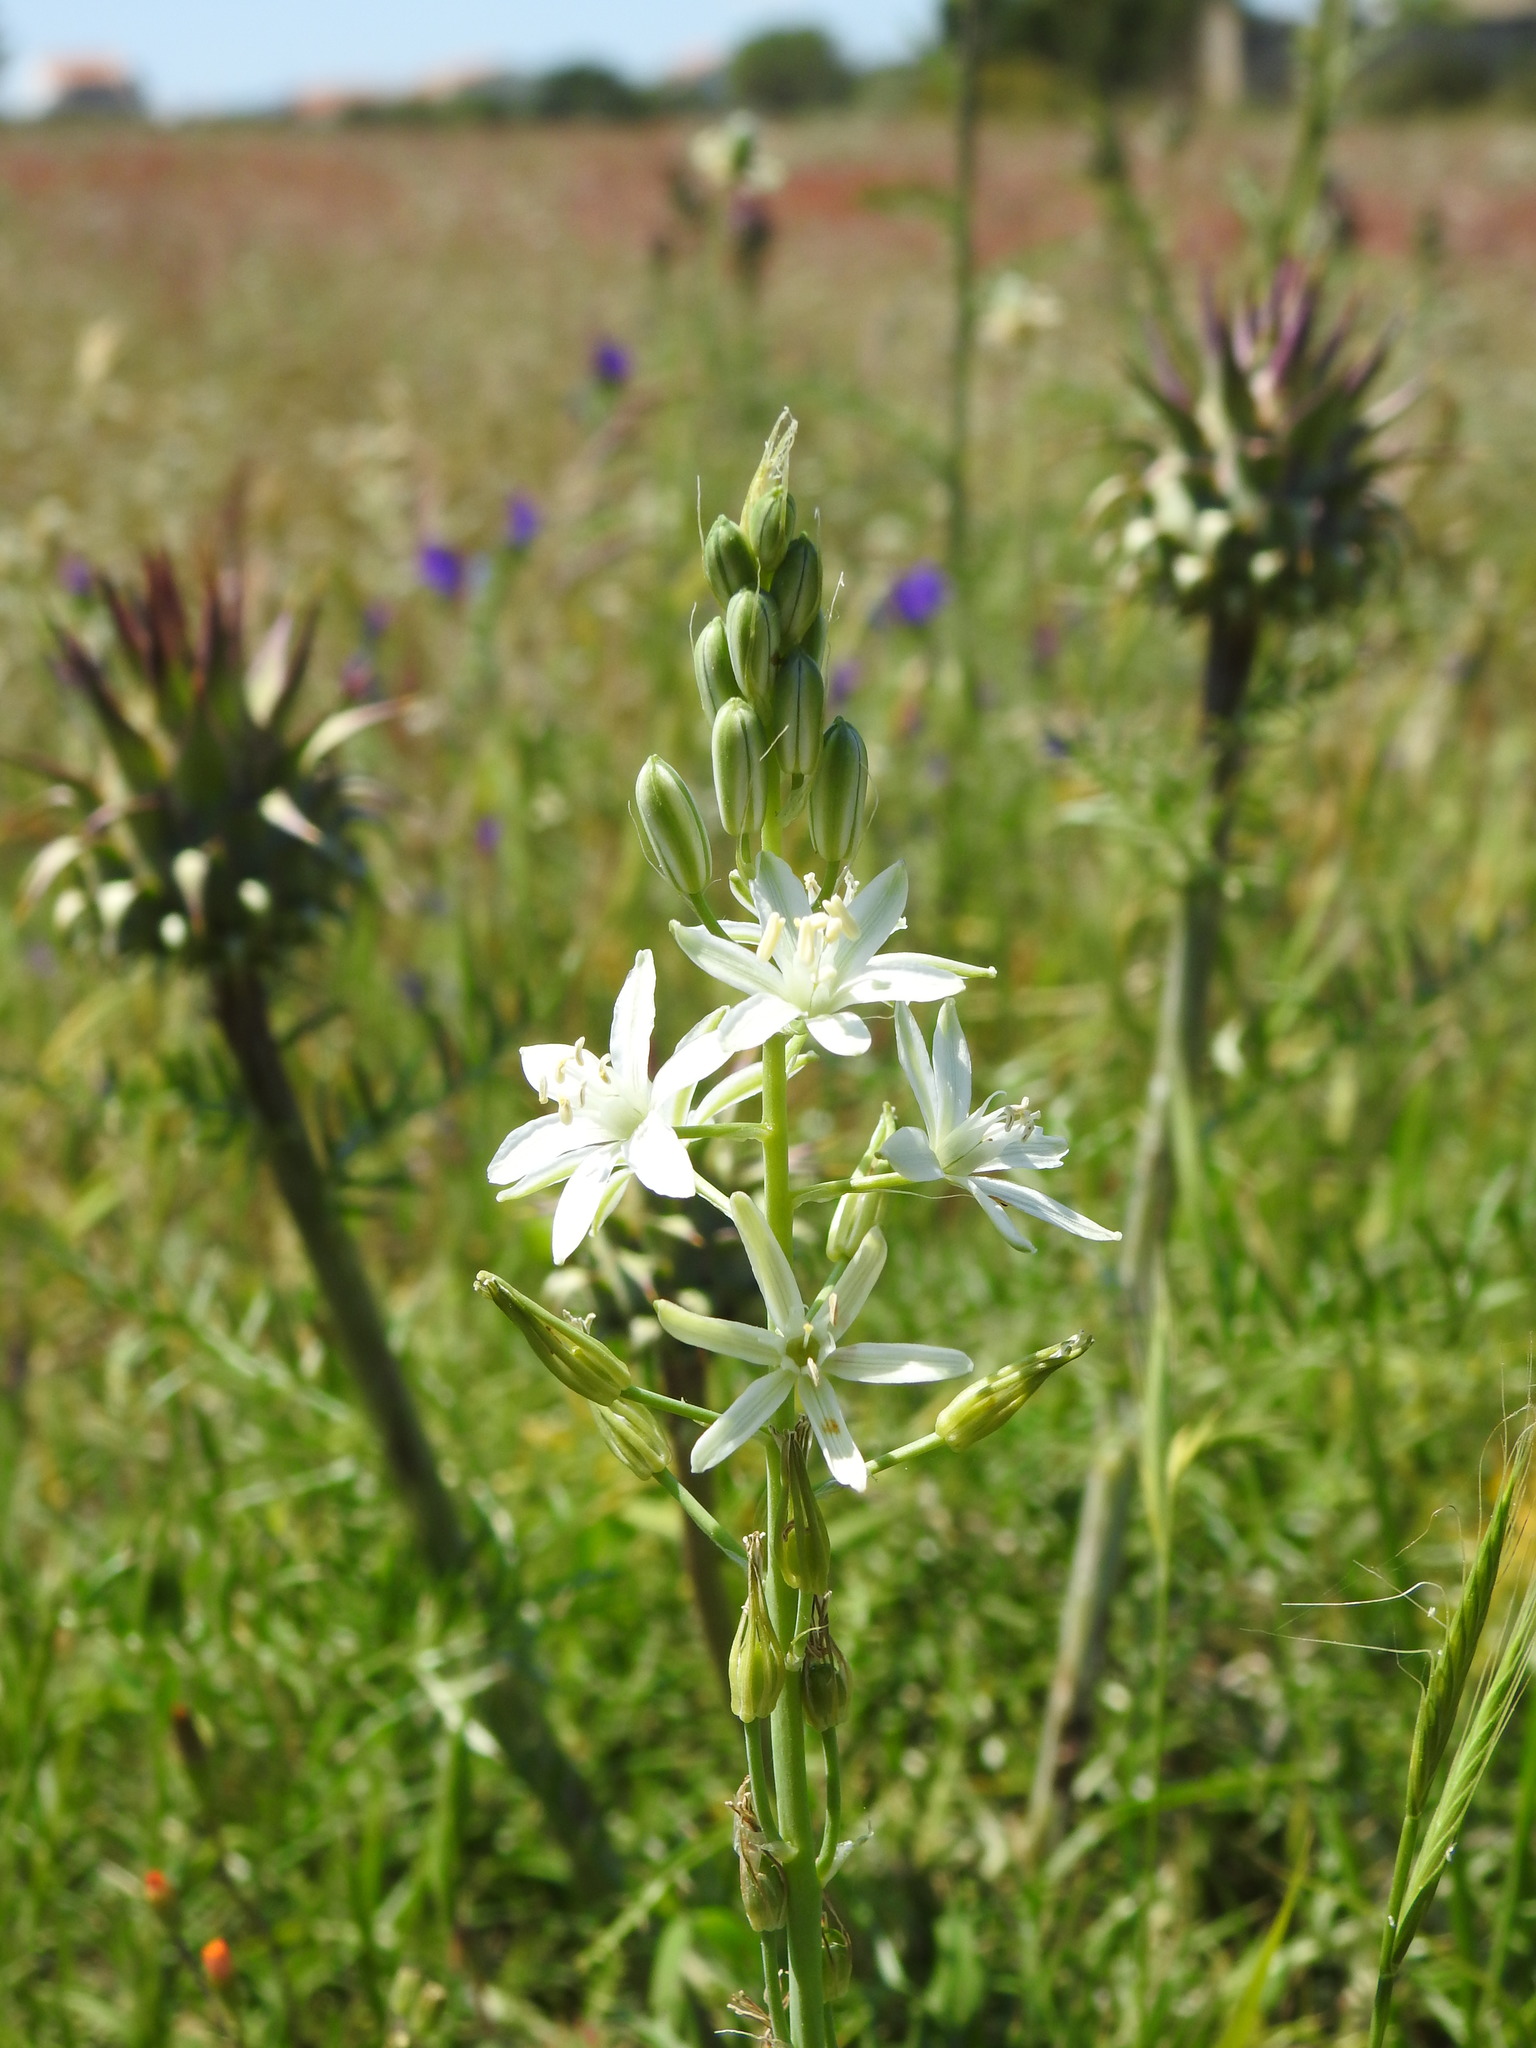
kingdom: Plantae
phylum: Tracheophyta
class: Liliopsida
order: Asparagales
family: Asparagaceae
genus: Ornithogalum
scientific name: Ornithogalum narbonense
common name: Bath-asparagus
